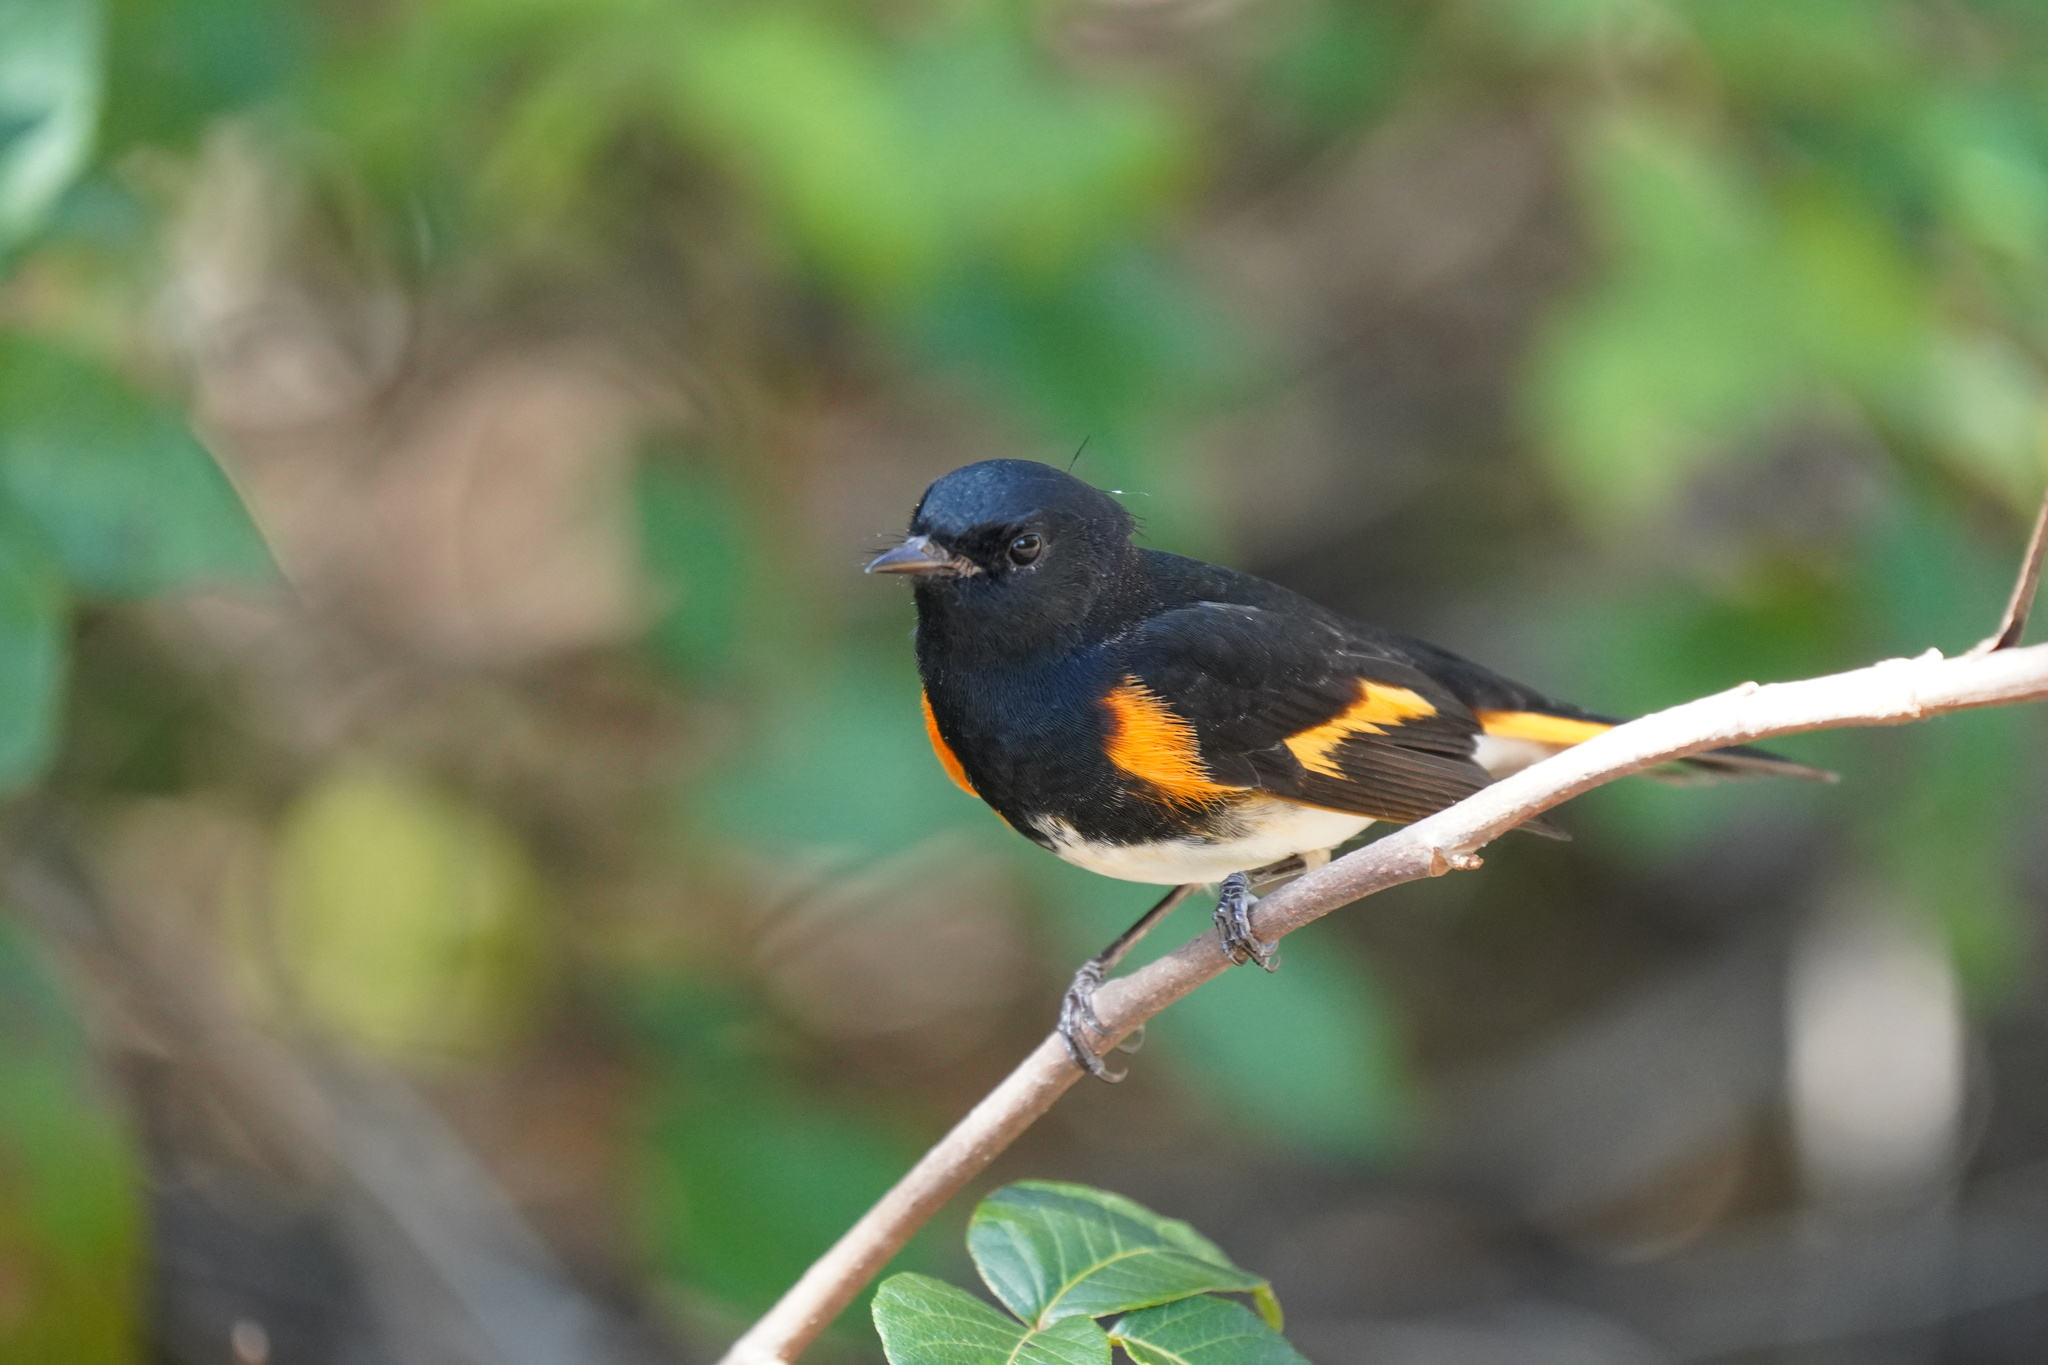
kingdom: Animalia
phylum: Chordata
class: Aves
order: Passeriformes
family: Parulidae
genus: Setophaga
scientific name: Setophaga ruticilla
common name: American redstart
